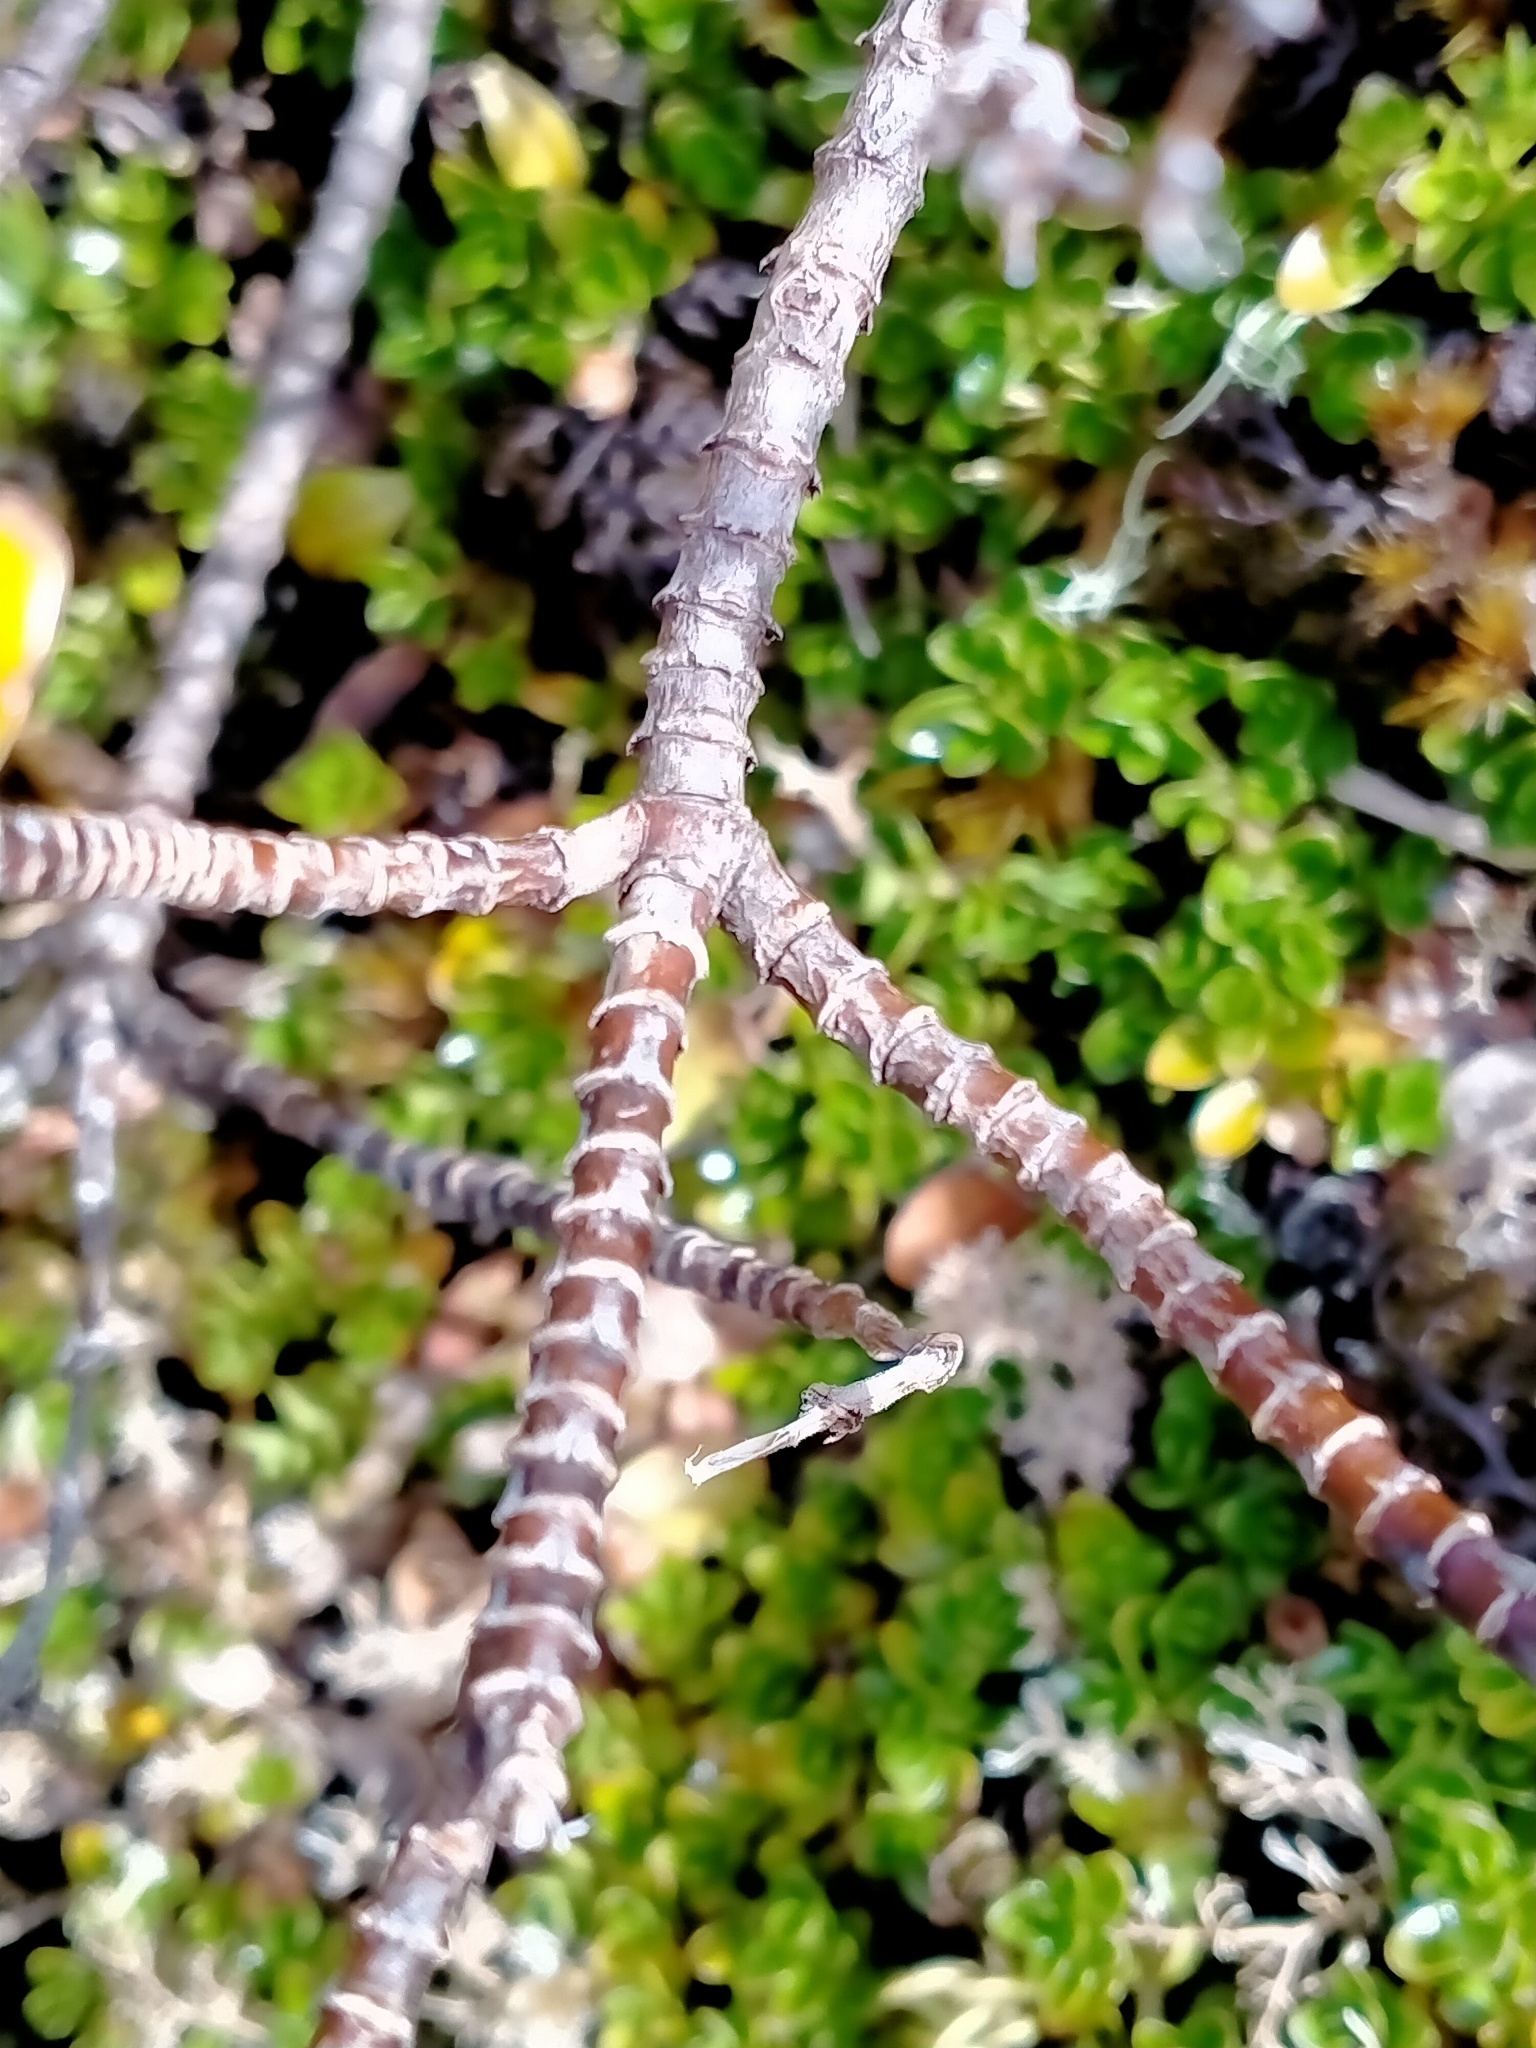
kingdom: Plantae
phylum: Tracheophyta
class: Magnoliopsida
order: Lamiales
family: Plantaginaceae
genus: Veronica
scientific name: Veronica benthamii
